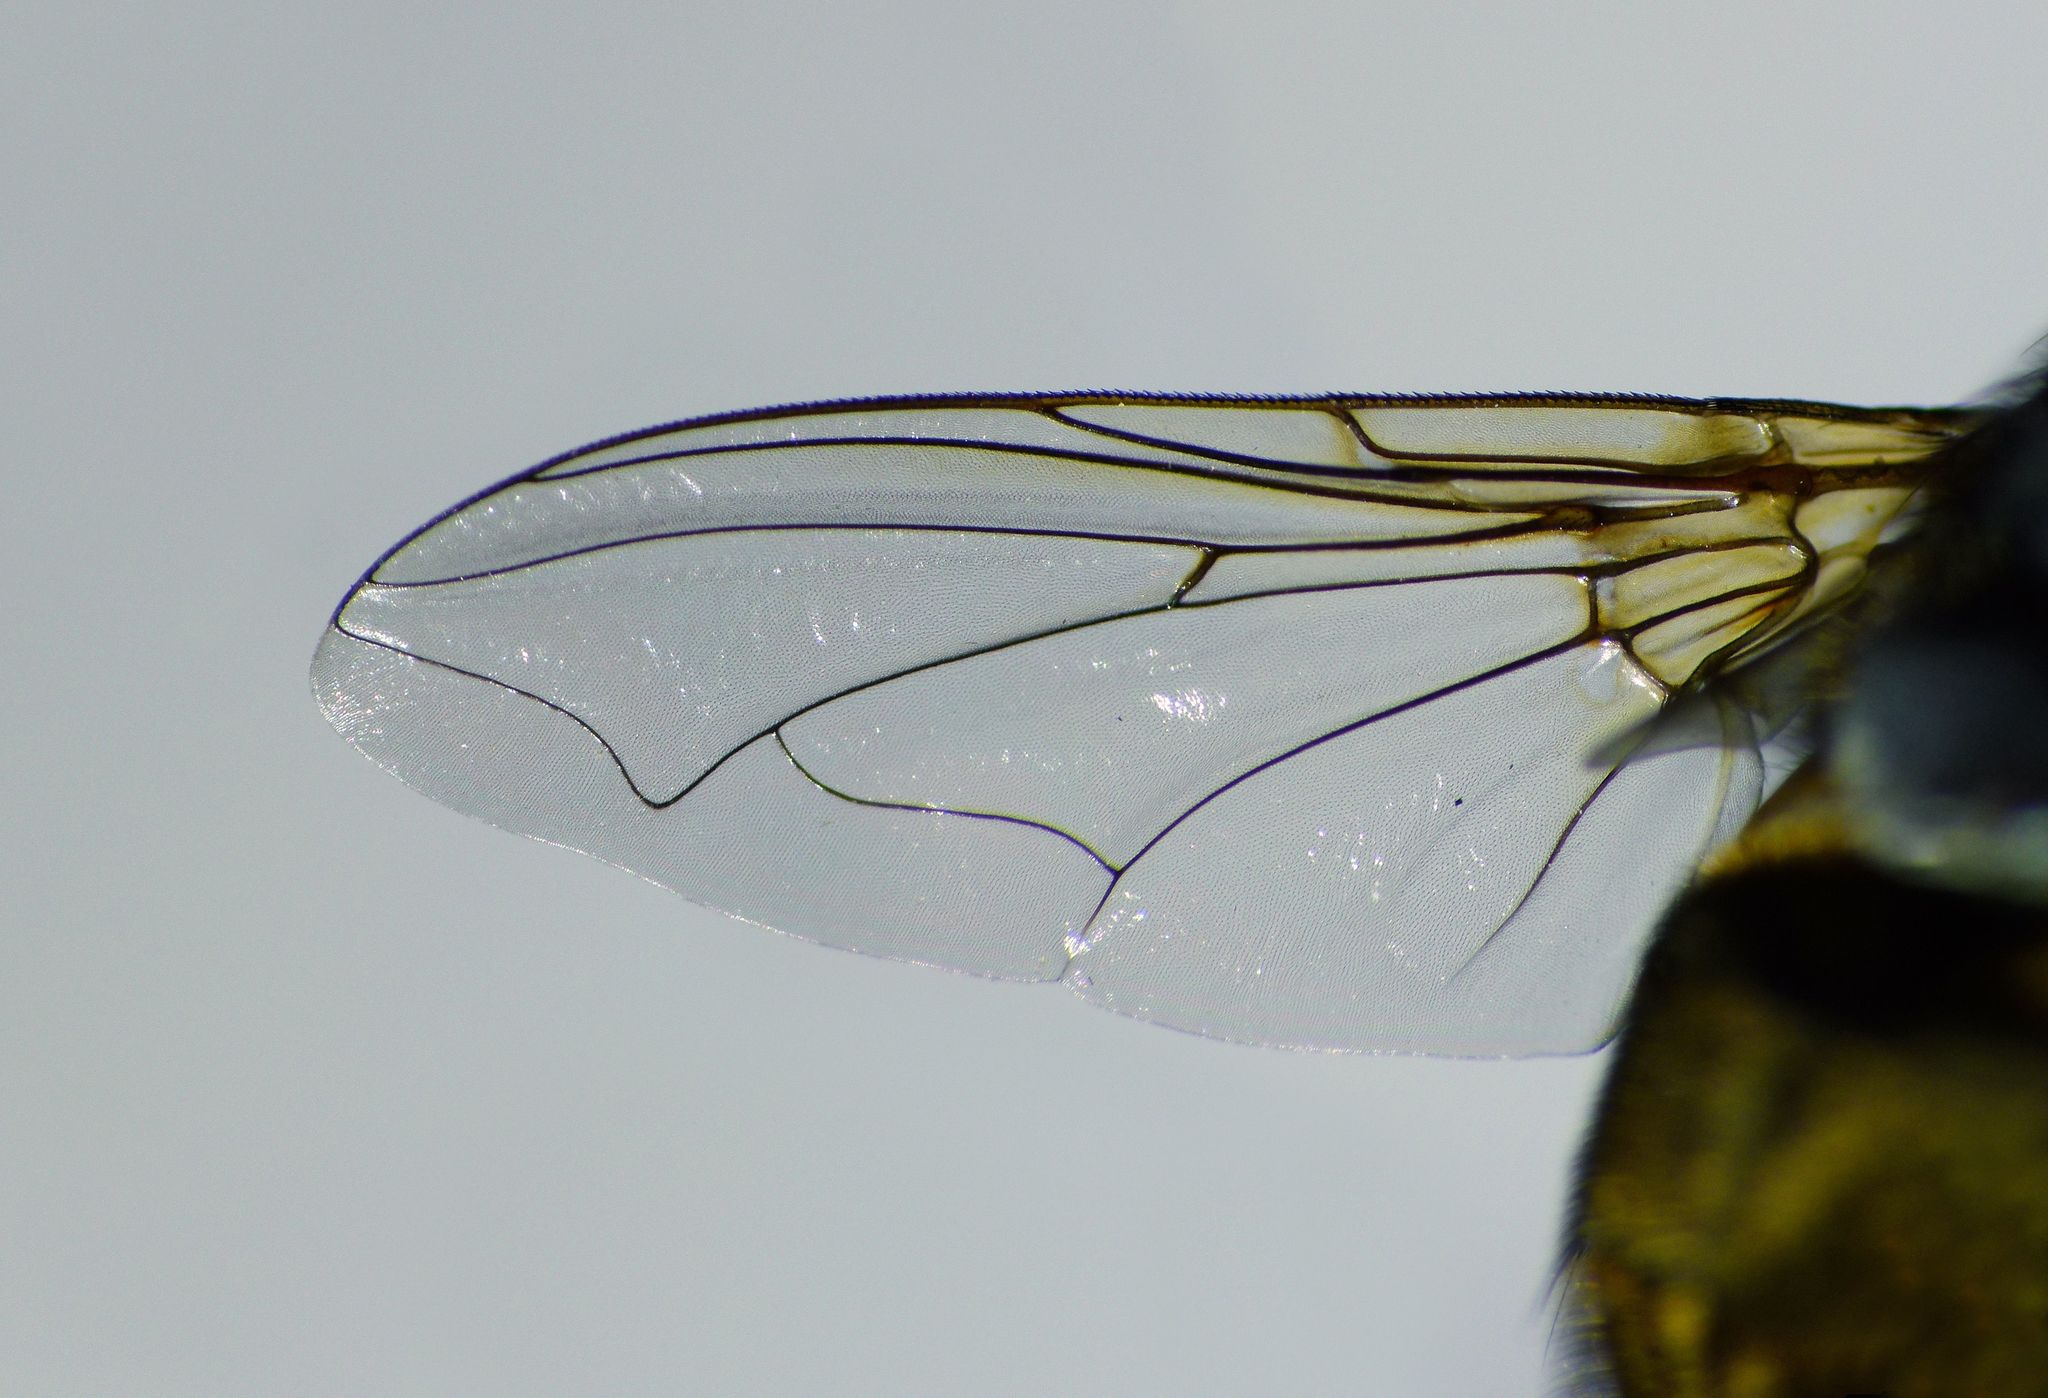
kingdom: Animalia
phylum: Arthropoda
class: Insecta
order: Diptera
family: Calliphoridae
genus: Calliphora
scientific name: Calliphora stygia
